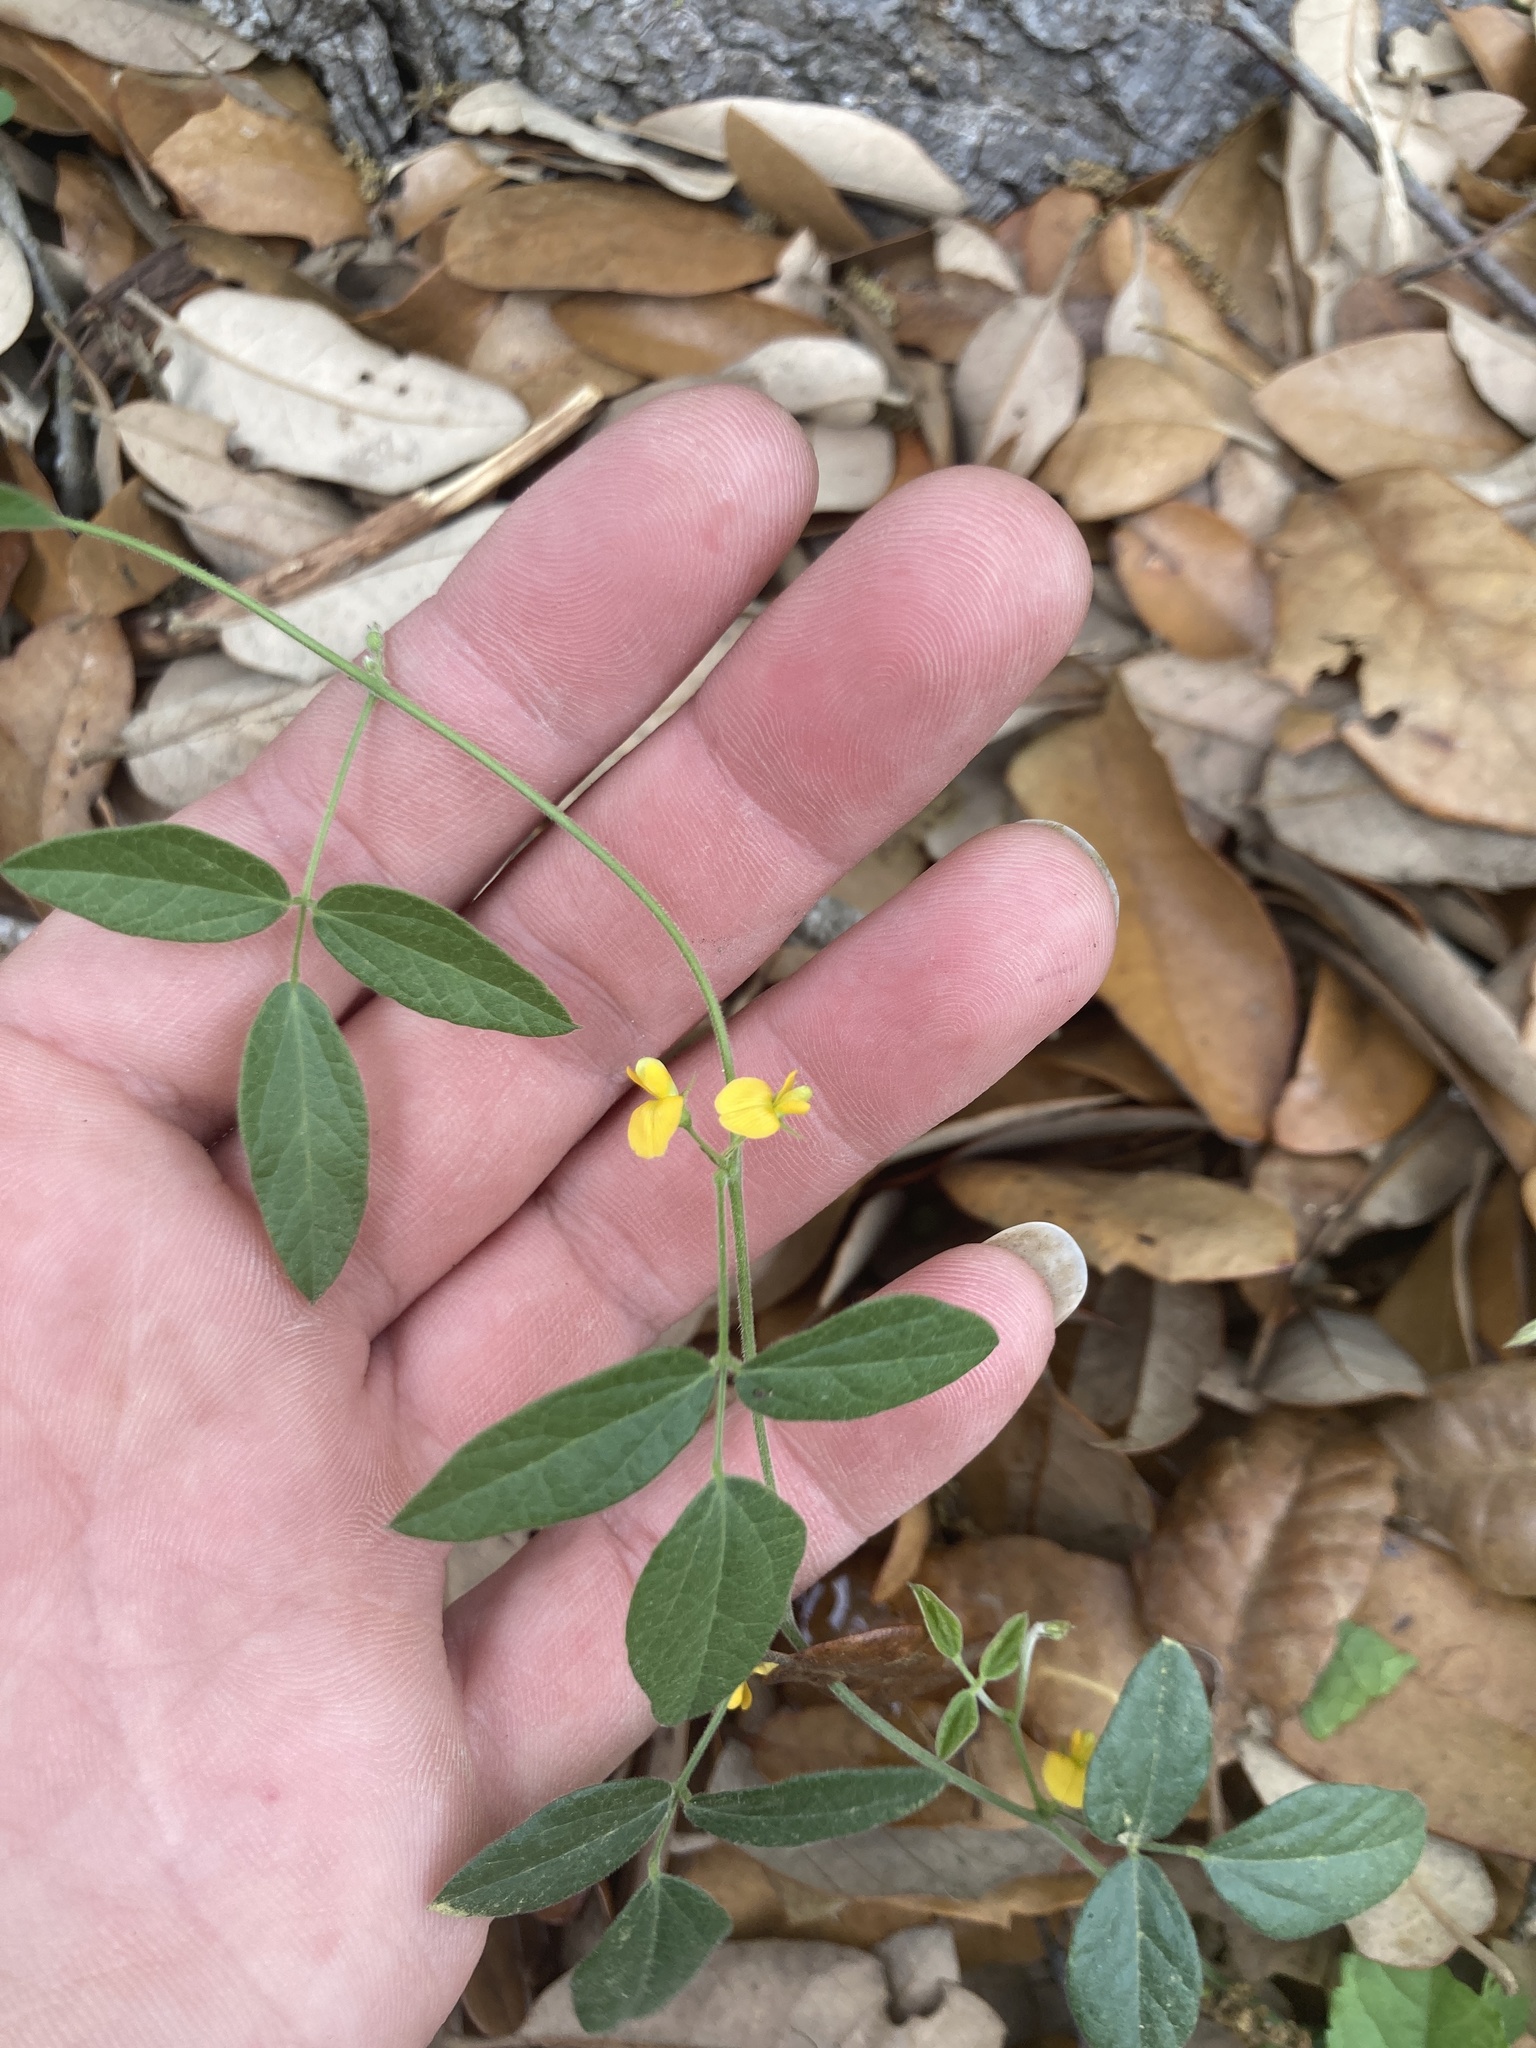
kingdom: Plantae
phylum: Tracheophyta
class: Magnoliopsida
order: Fabales
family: Fabaceae
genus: Rhynchosia
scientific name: Rhynchosia senna
